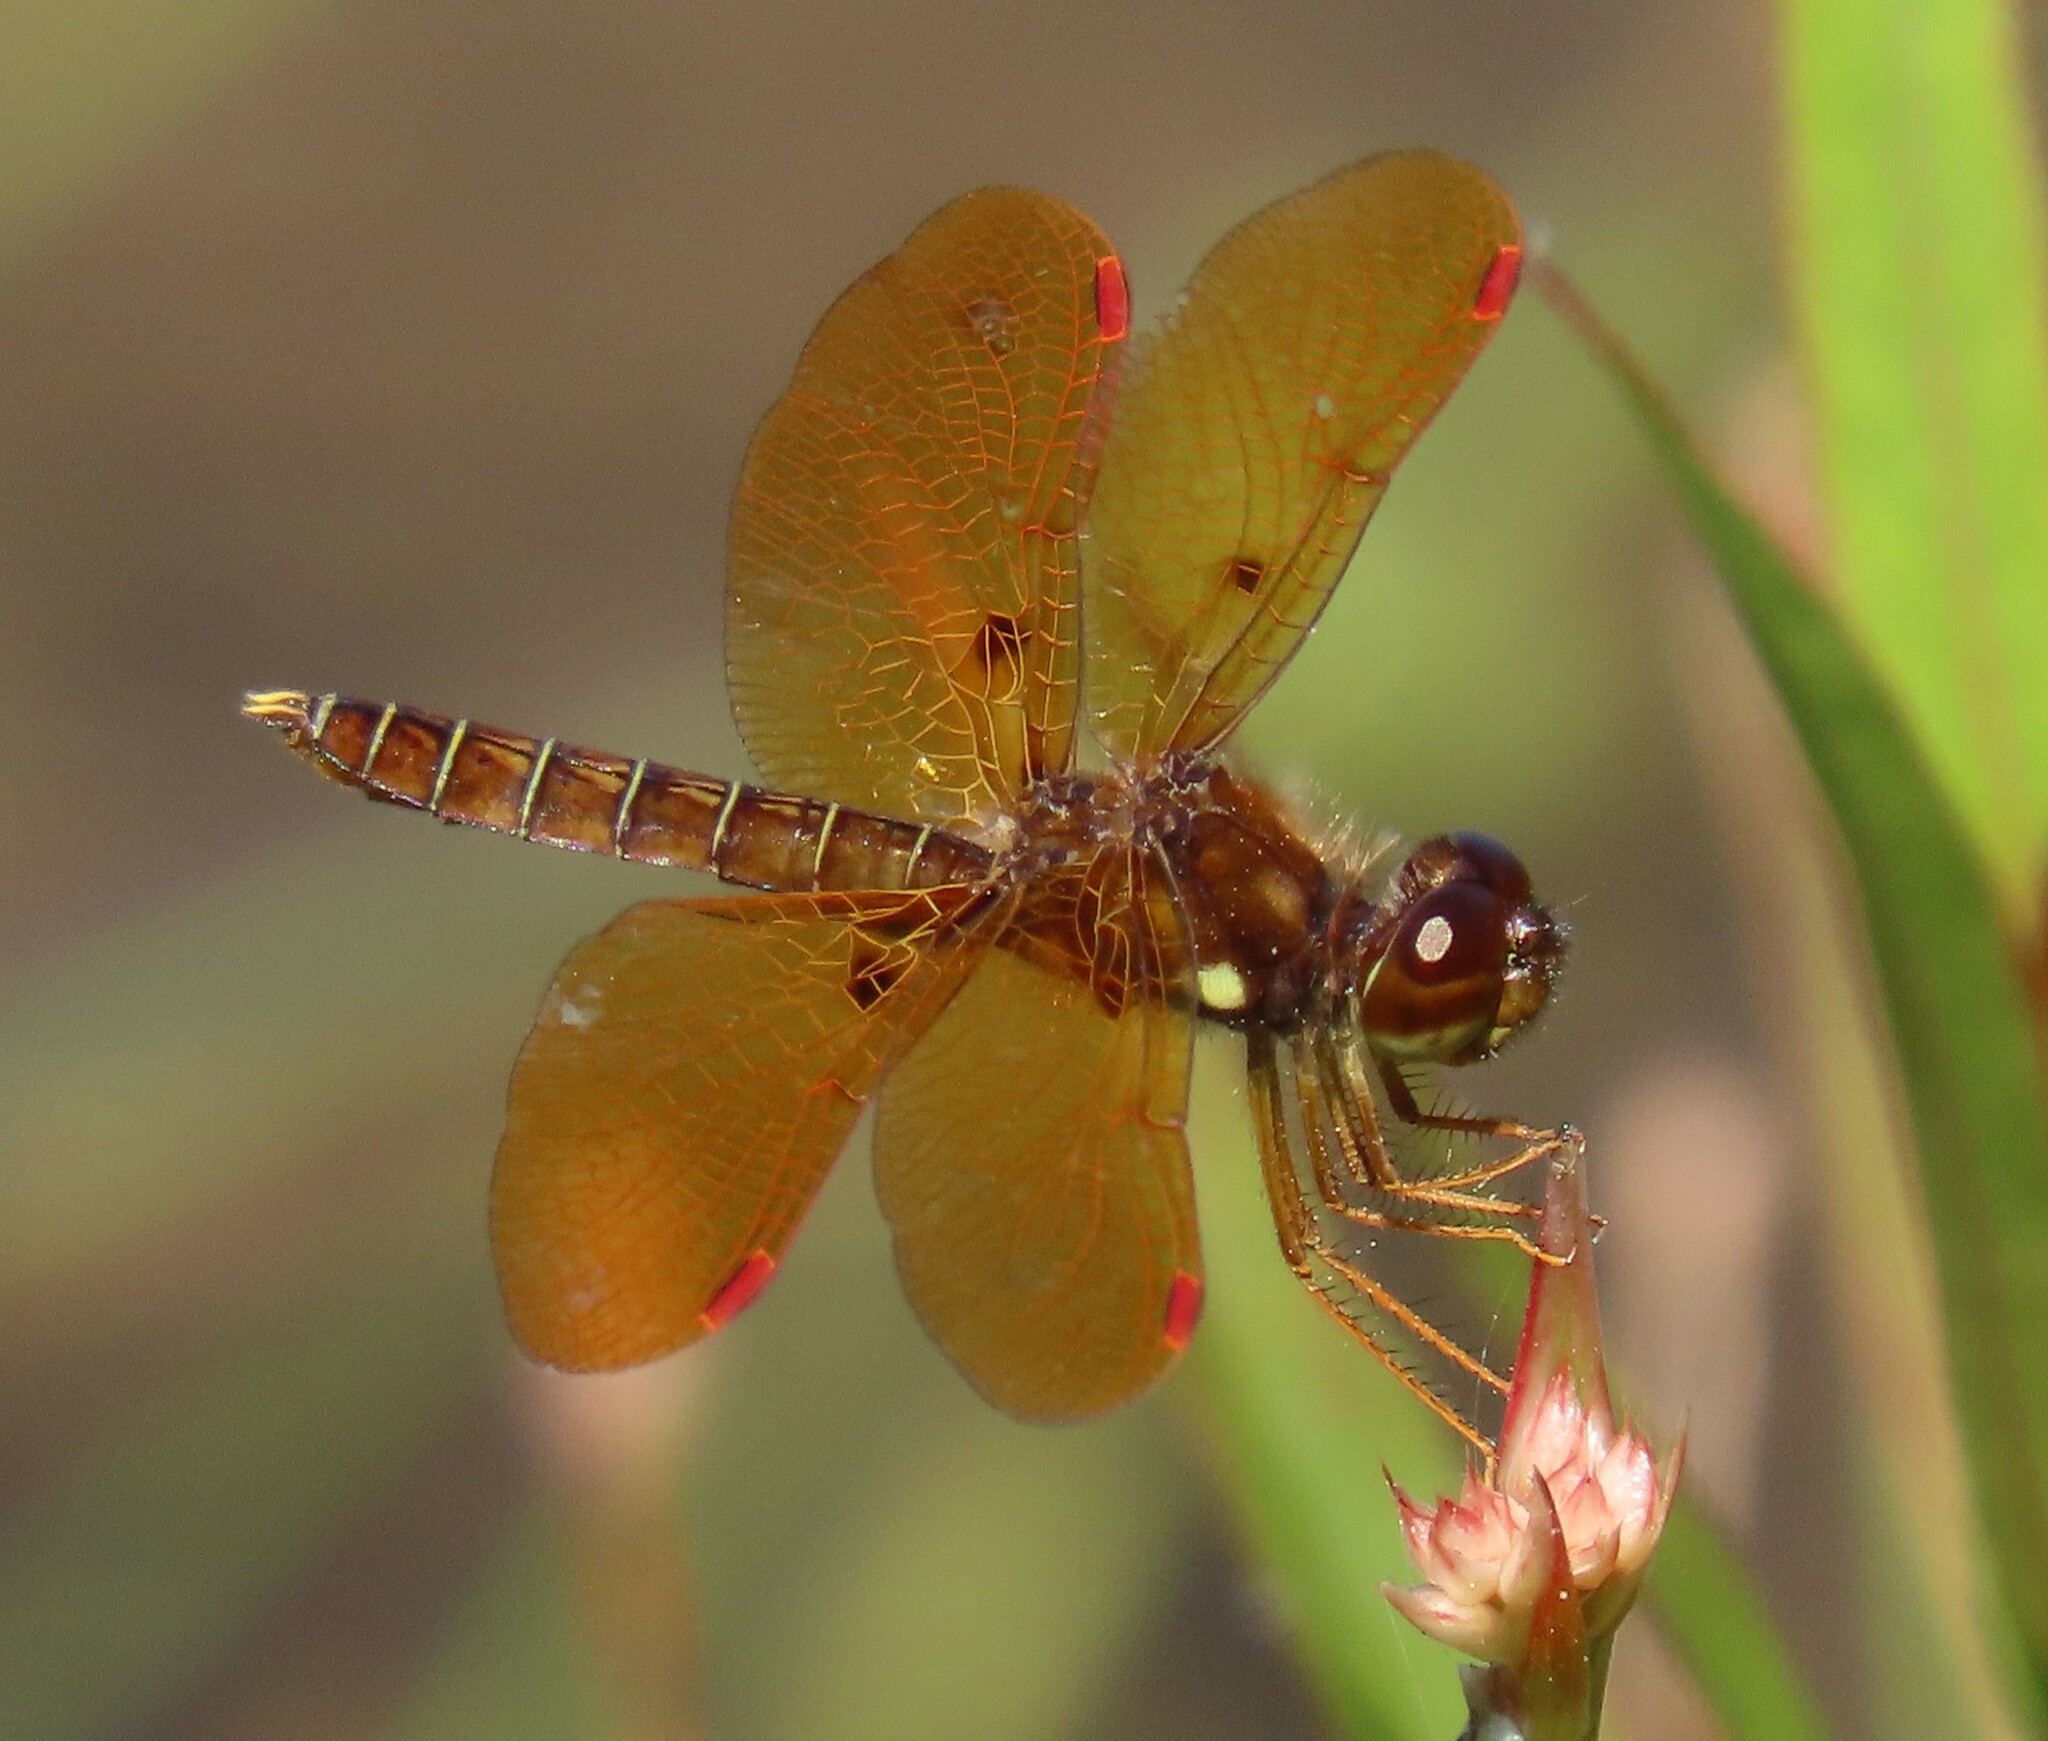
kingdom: Animalia
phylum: Arthropoda
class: Insecta
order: Odonata
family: Libellulidae
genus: Perithemis
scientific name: Perithemis tenera
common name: Eastern amberwing
